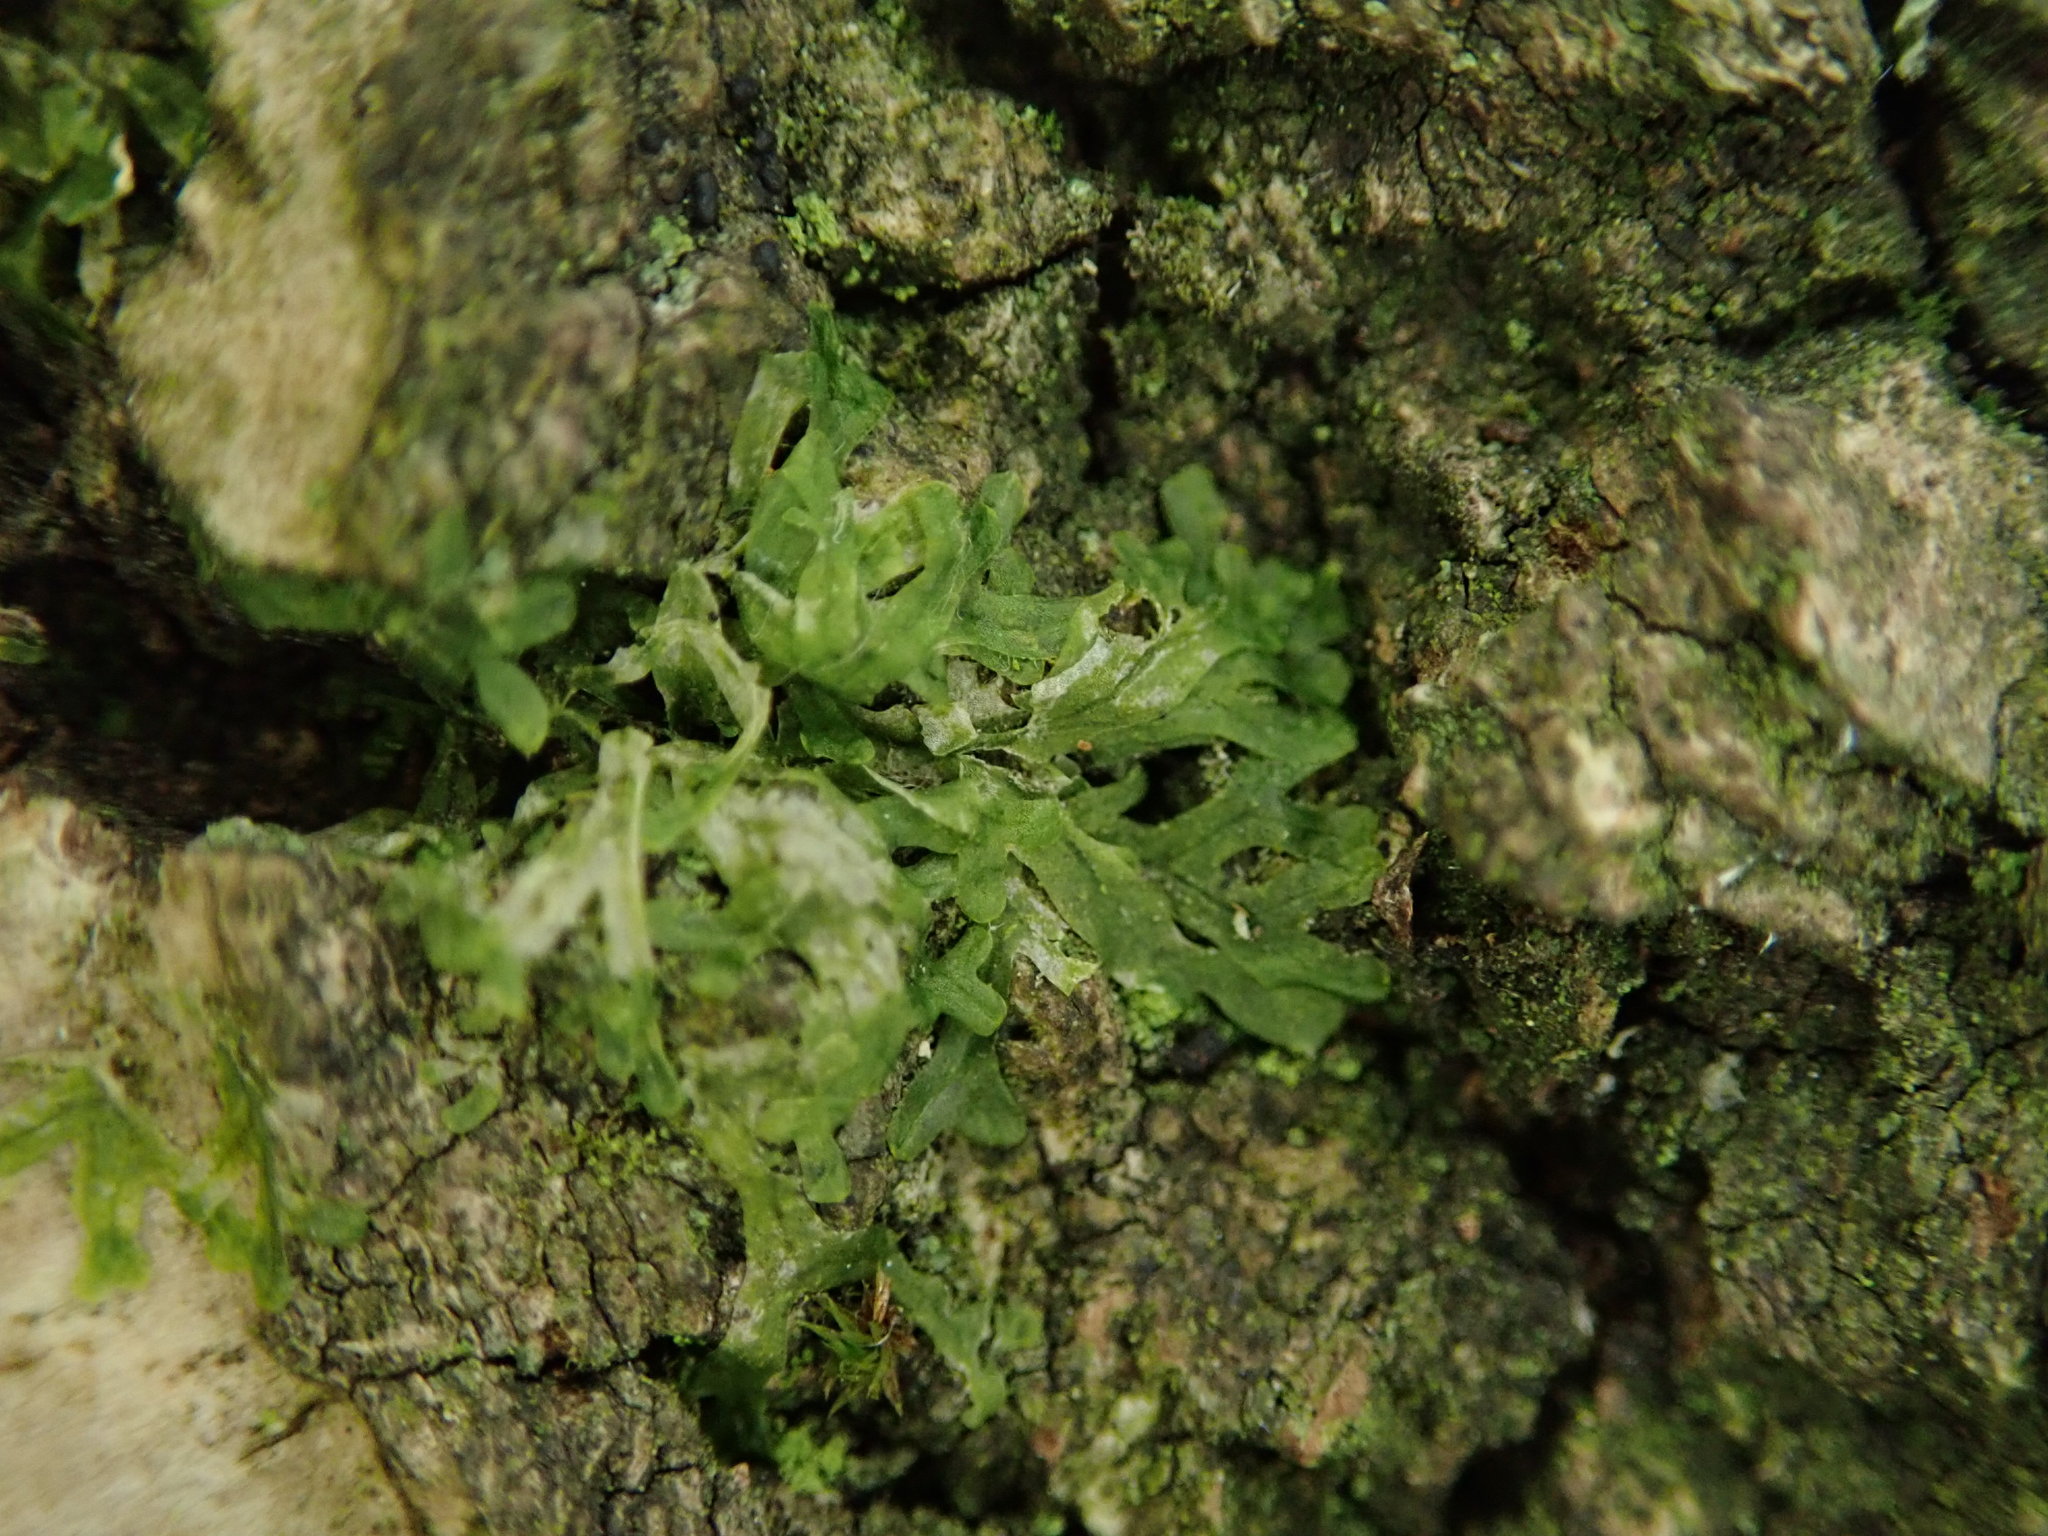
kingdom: Plantae
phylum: Marchantiophyta
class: Jungermanniopsida
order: Metzgeriales
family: Metzgeriaceae
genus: Metzgeria
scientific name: Metzgeria furcata
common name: Forked veilwort
